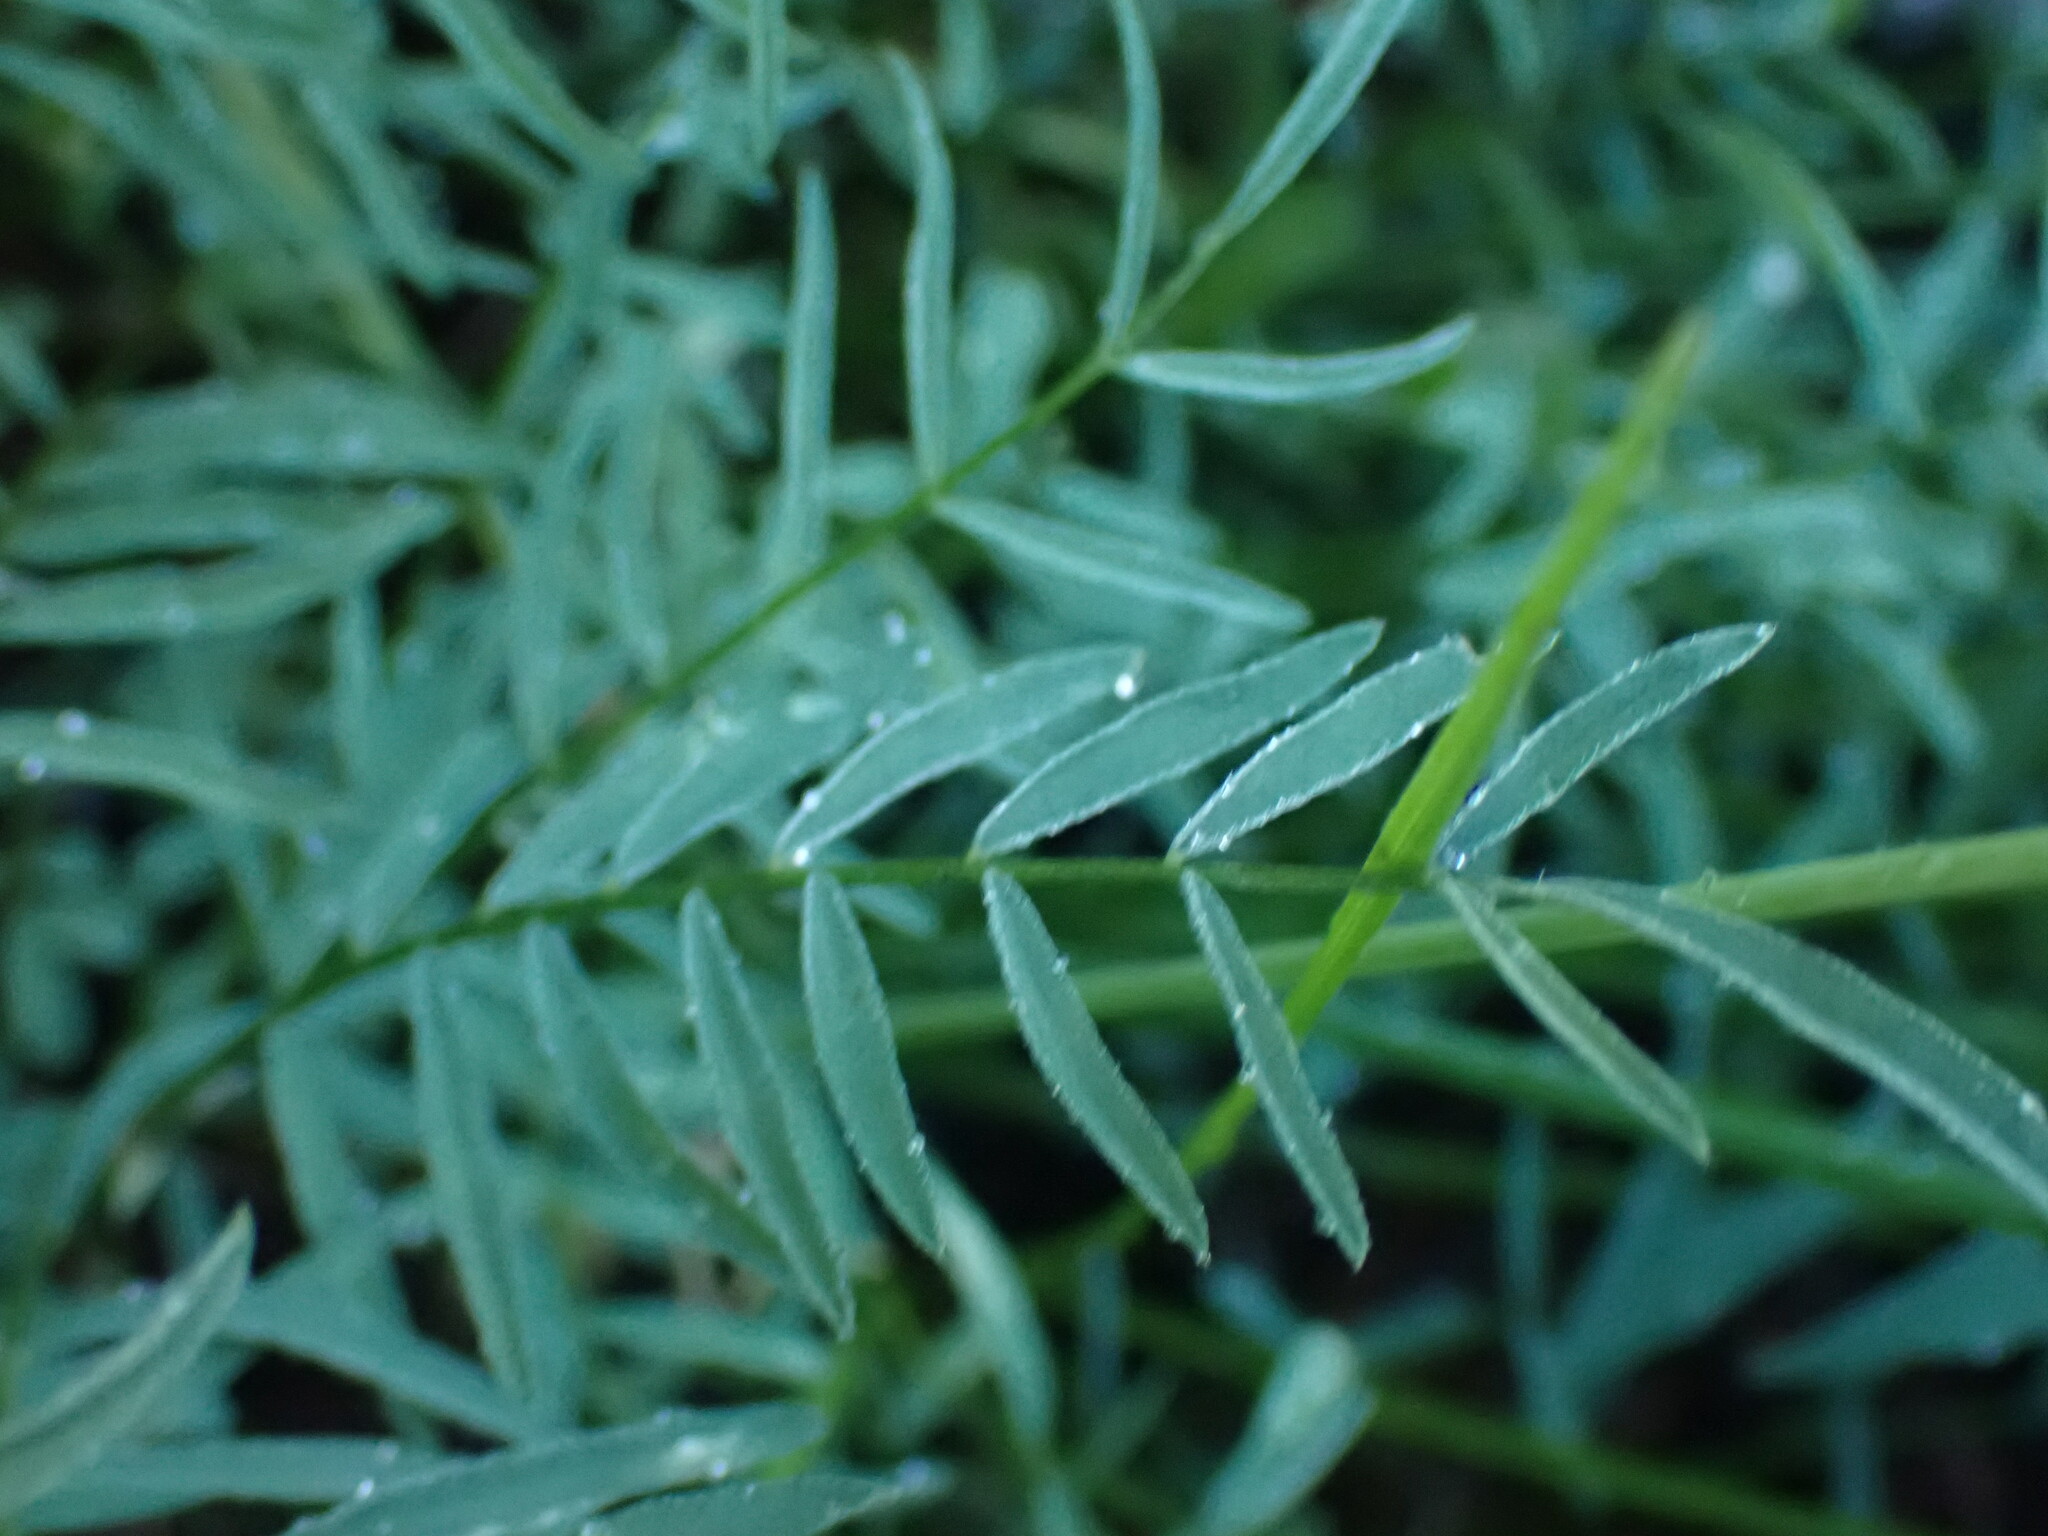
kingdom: Plantae
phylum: Tracheophyta
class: Magnoliopsida
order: Fabales
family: Fabaceae
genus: Astragalus
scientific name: Astragalus miser
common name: Timber milkvetch
